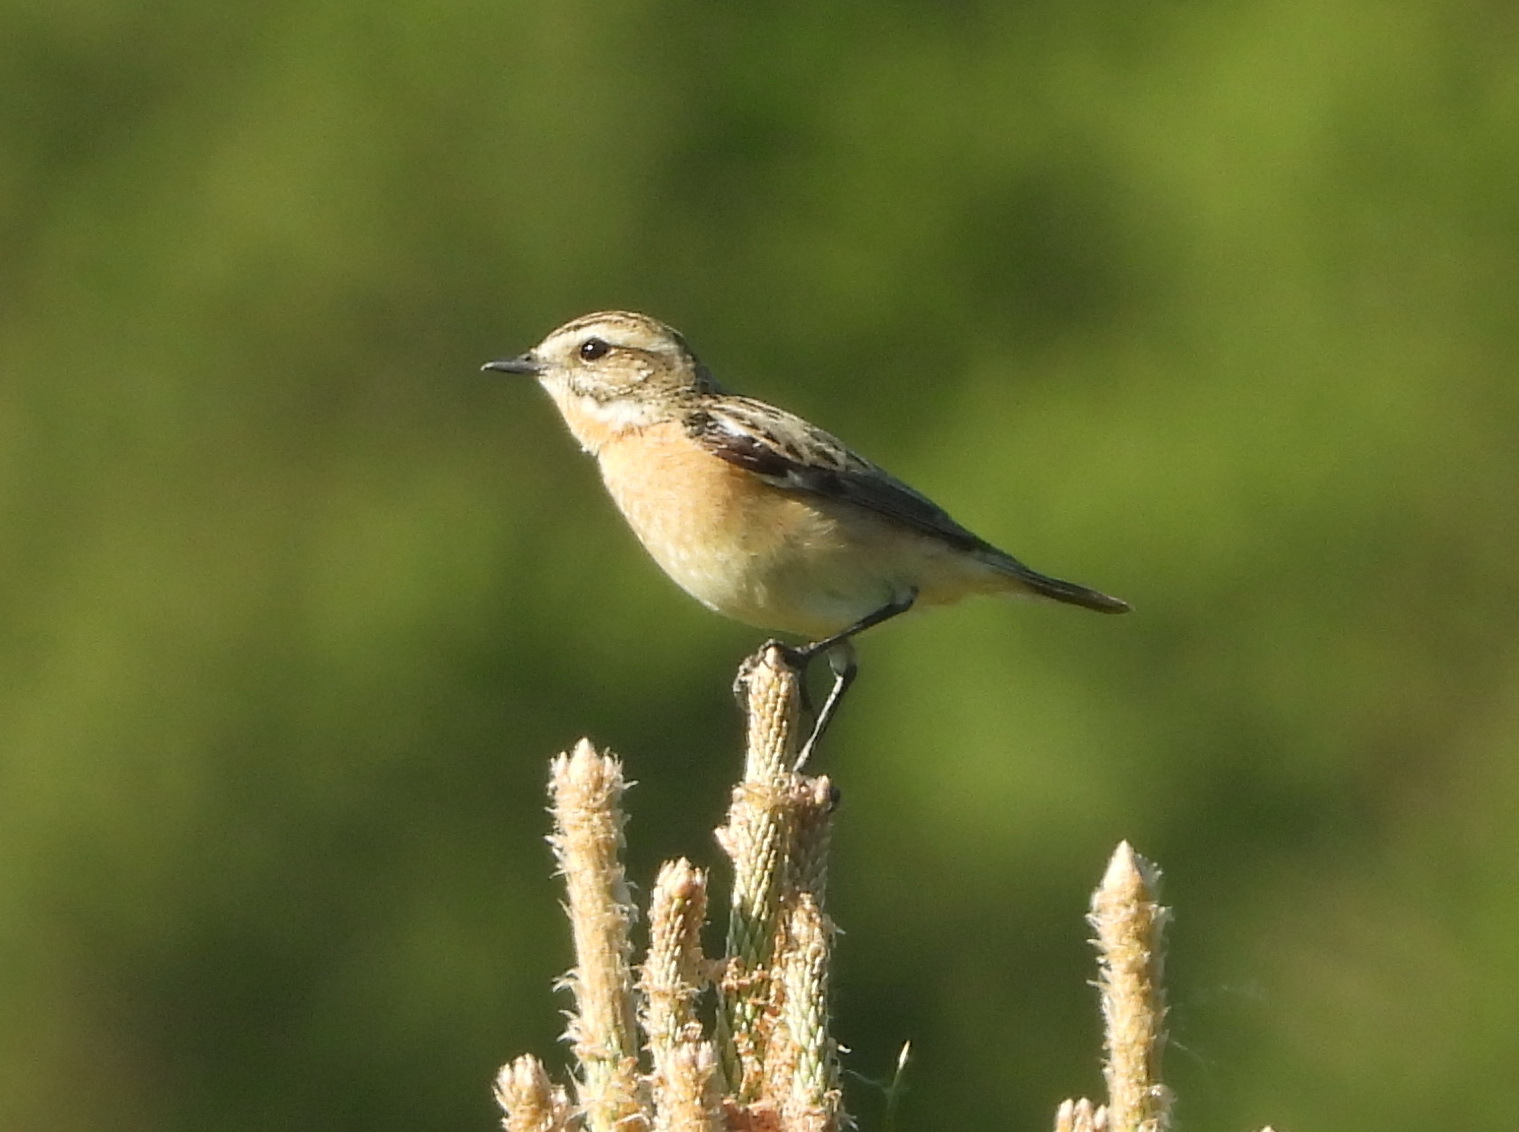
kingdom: Animalia
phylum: Chordata
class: Aves
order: Passeriformes
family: Muscicapidae
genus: Saxicola
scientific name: Saxicola rubetra
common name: Whinchat
